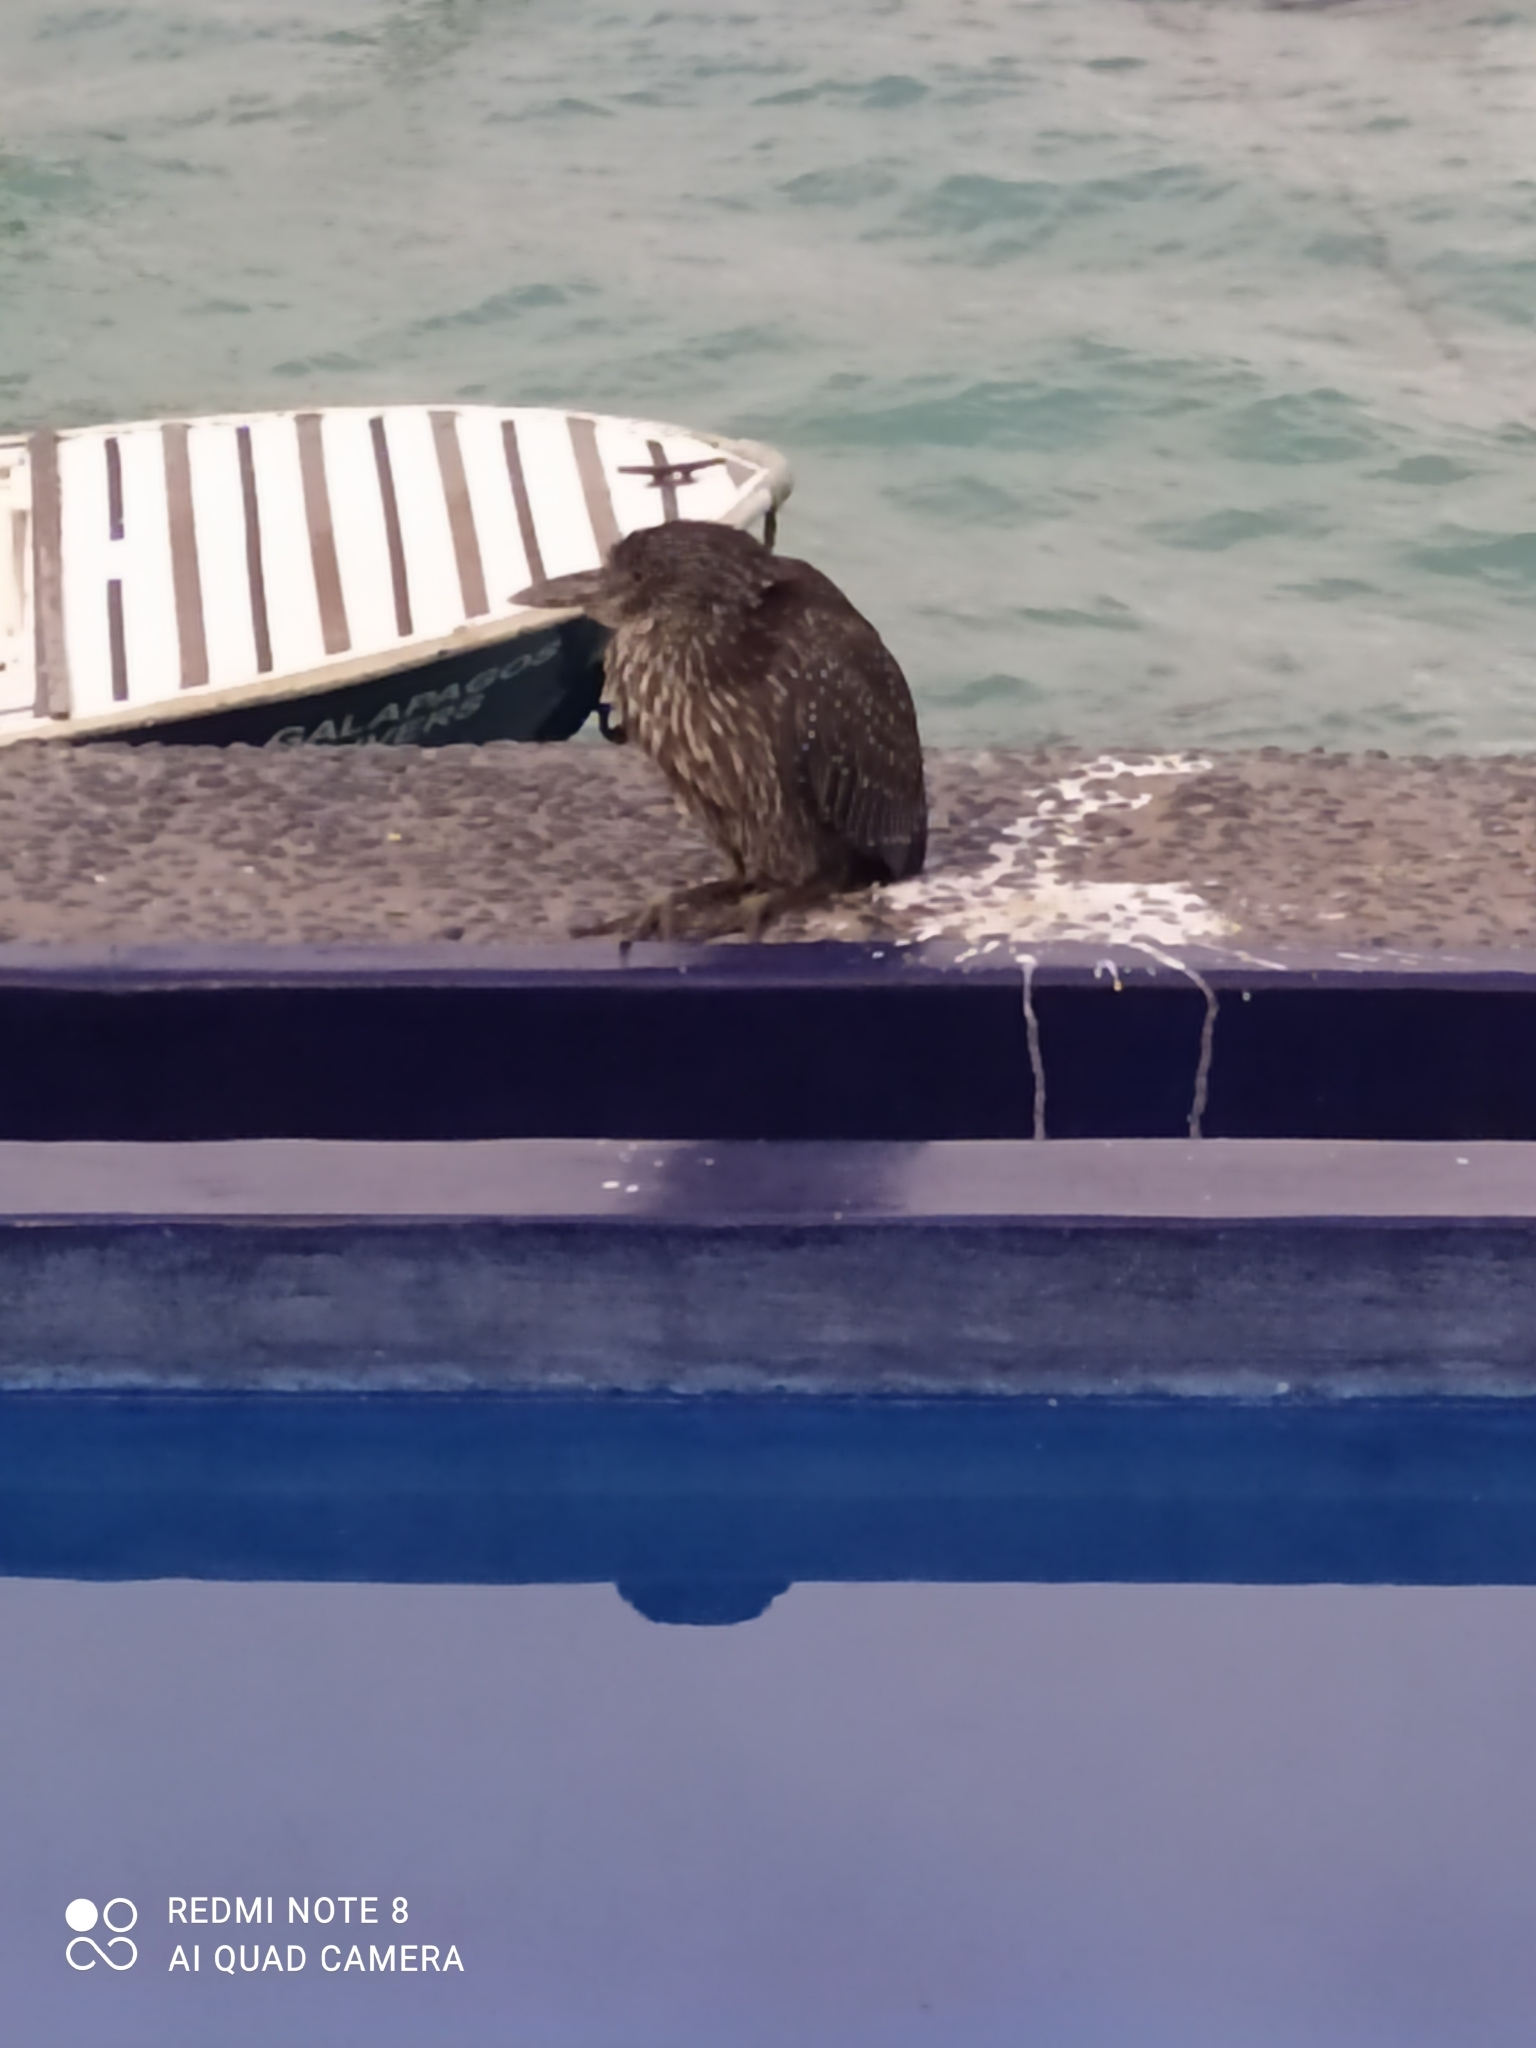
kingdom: Animalia
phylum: Chordata
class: Aves
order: Pelecaniformes
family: Ardeidae
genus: Nyctanassa
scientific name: Nyctanassa violacea
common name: Yellow-crowned night heron
